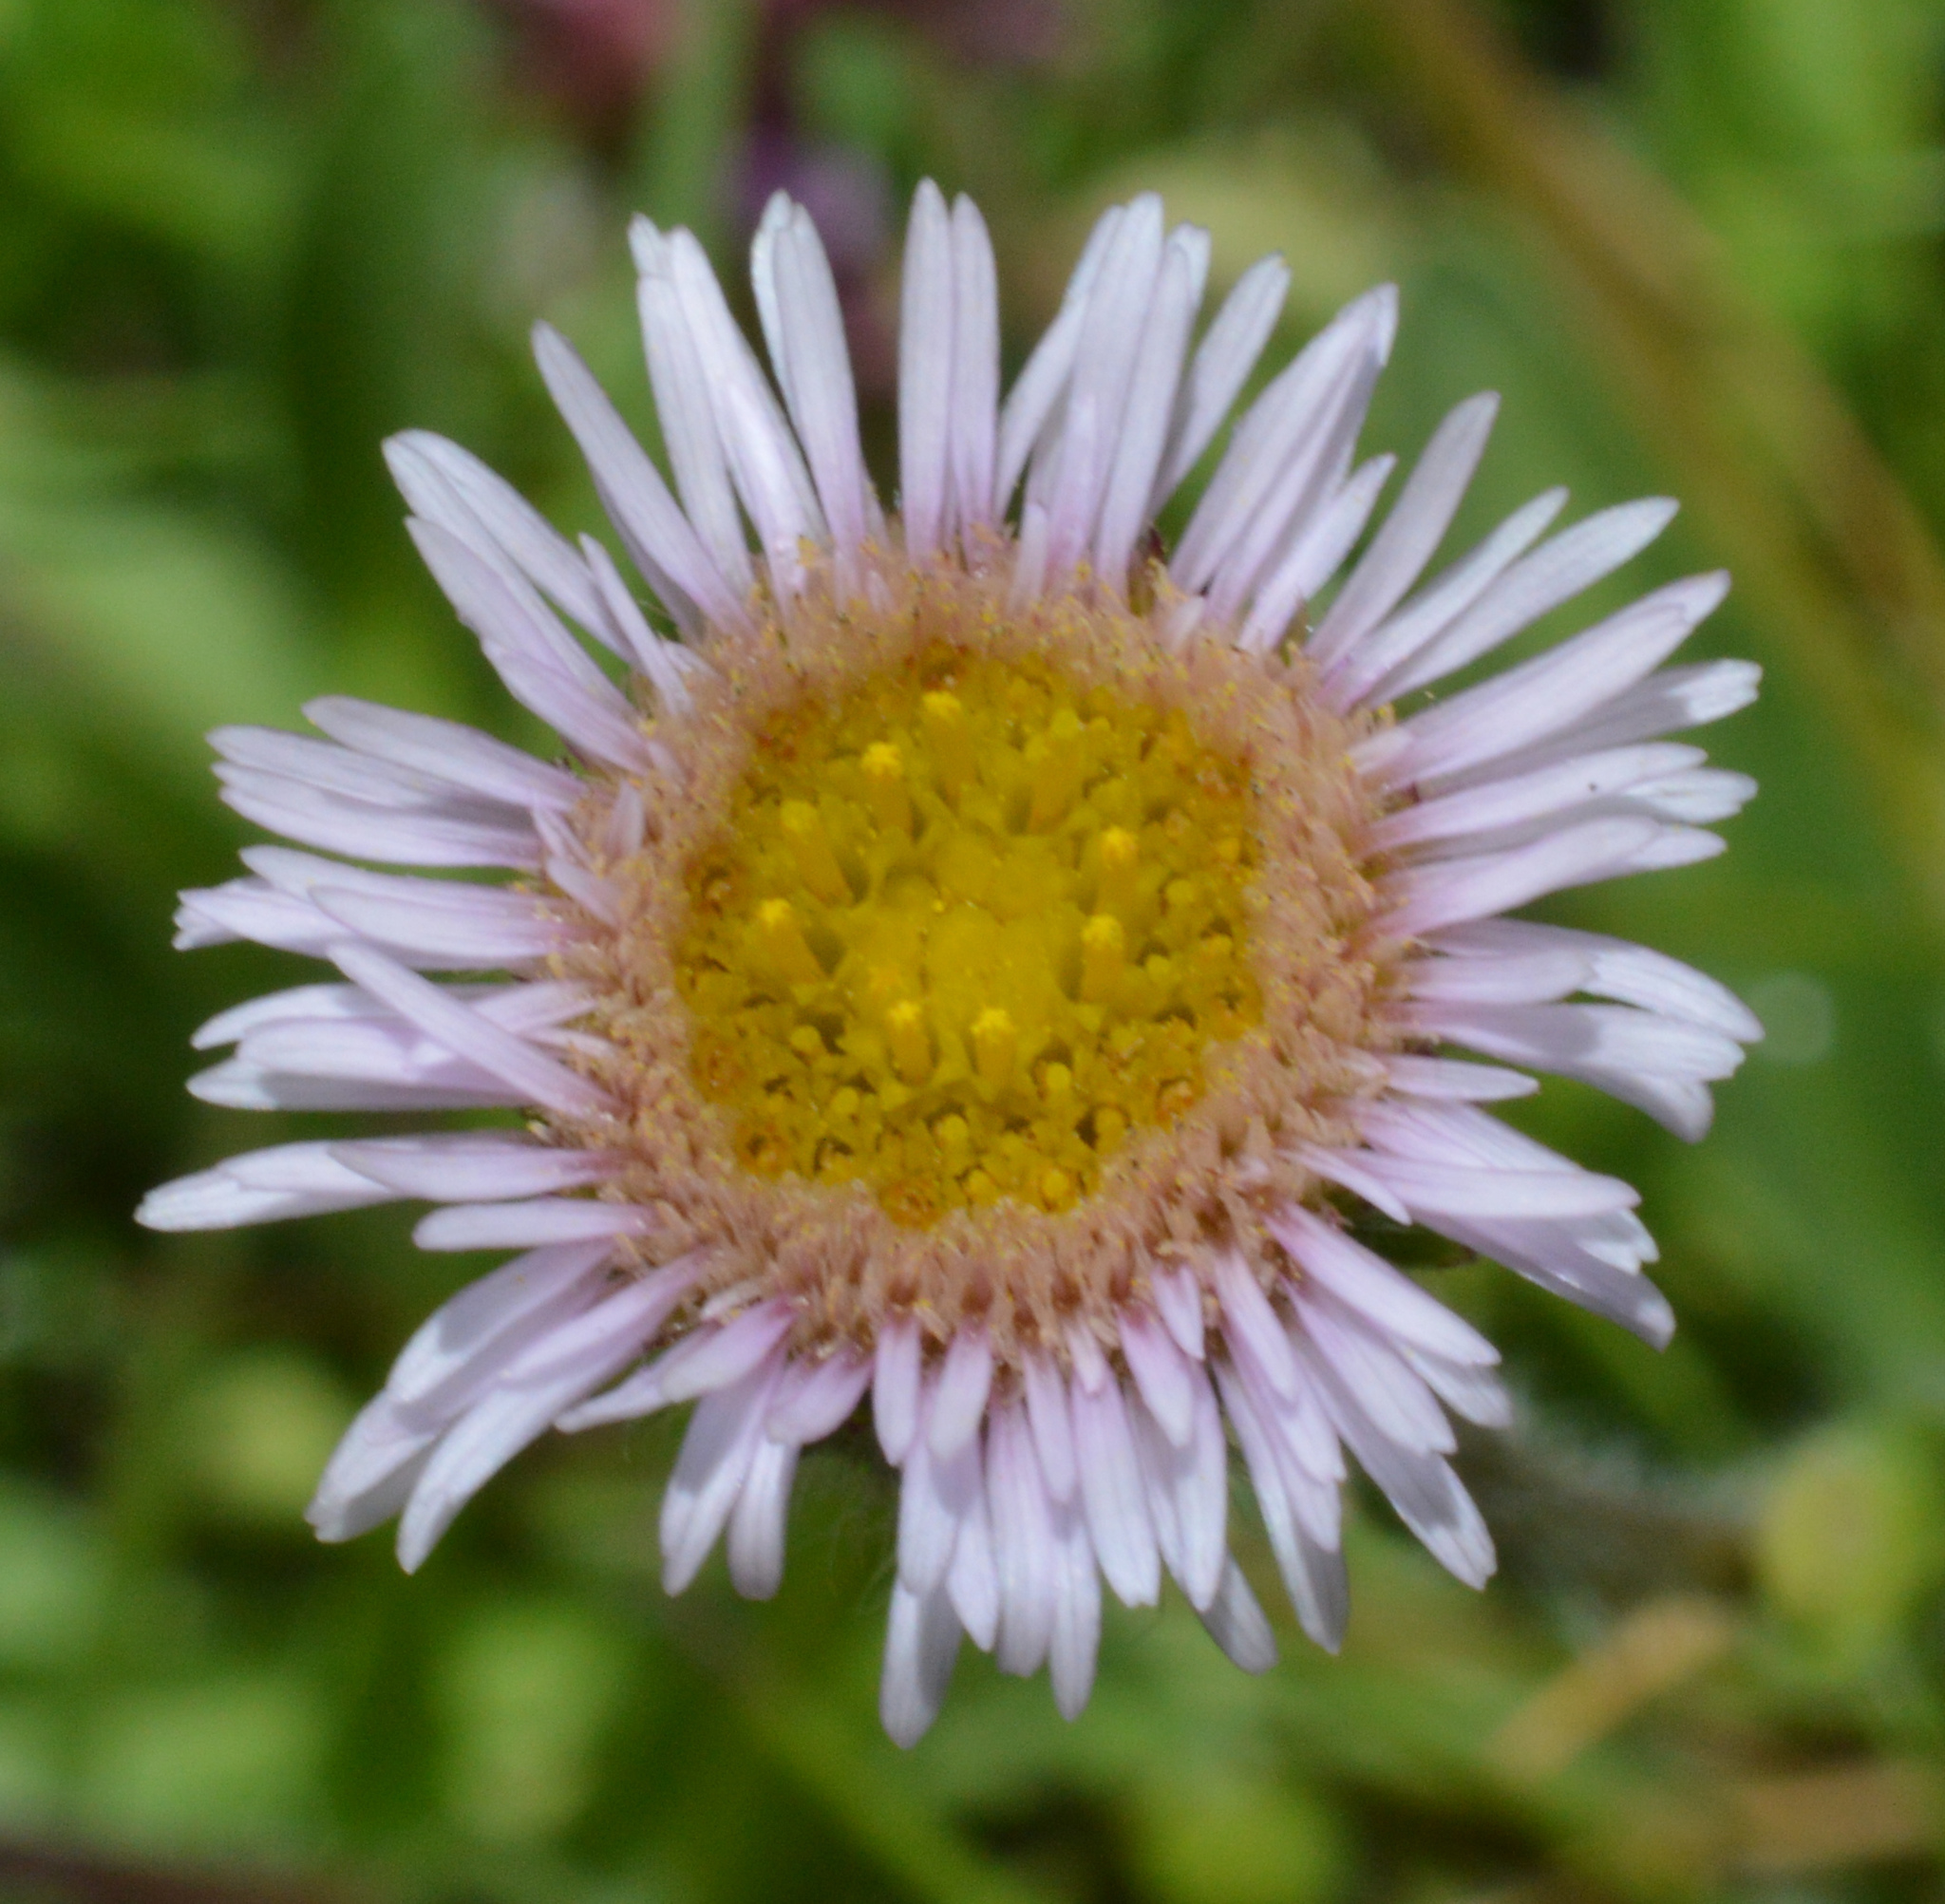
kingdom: Plantae
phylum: Tracheophyta
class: Magnoliopsida
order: Asterales
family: Asteraceae
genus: Erigeron
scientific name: Erigeron alpinus
